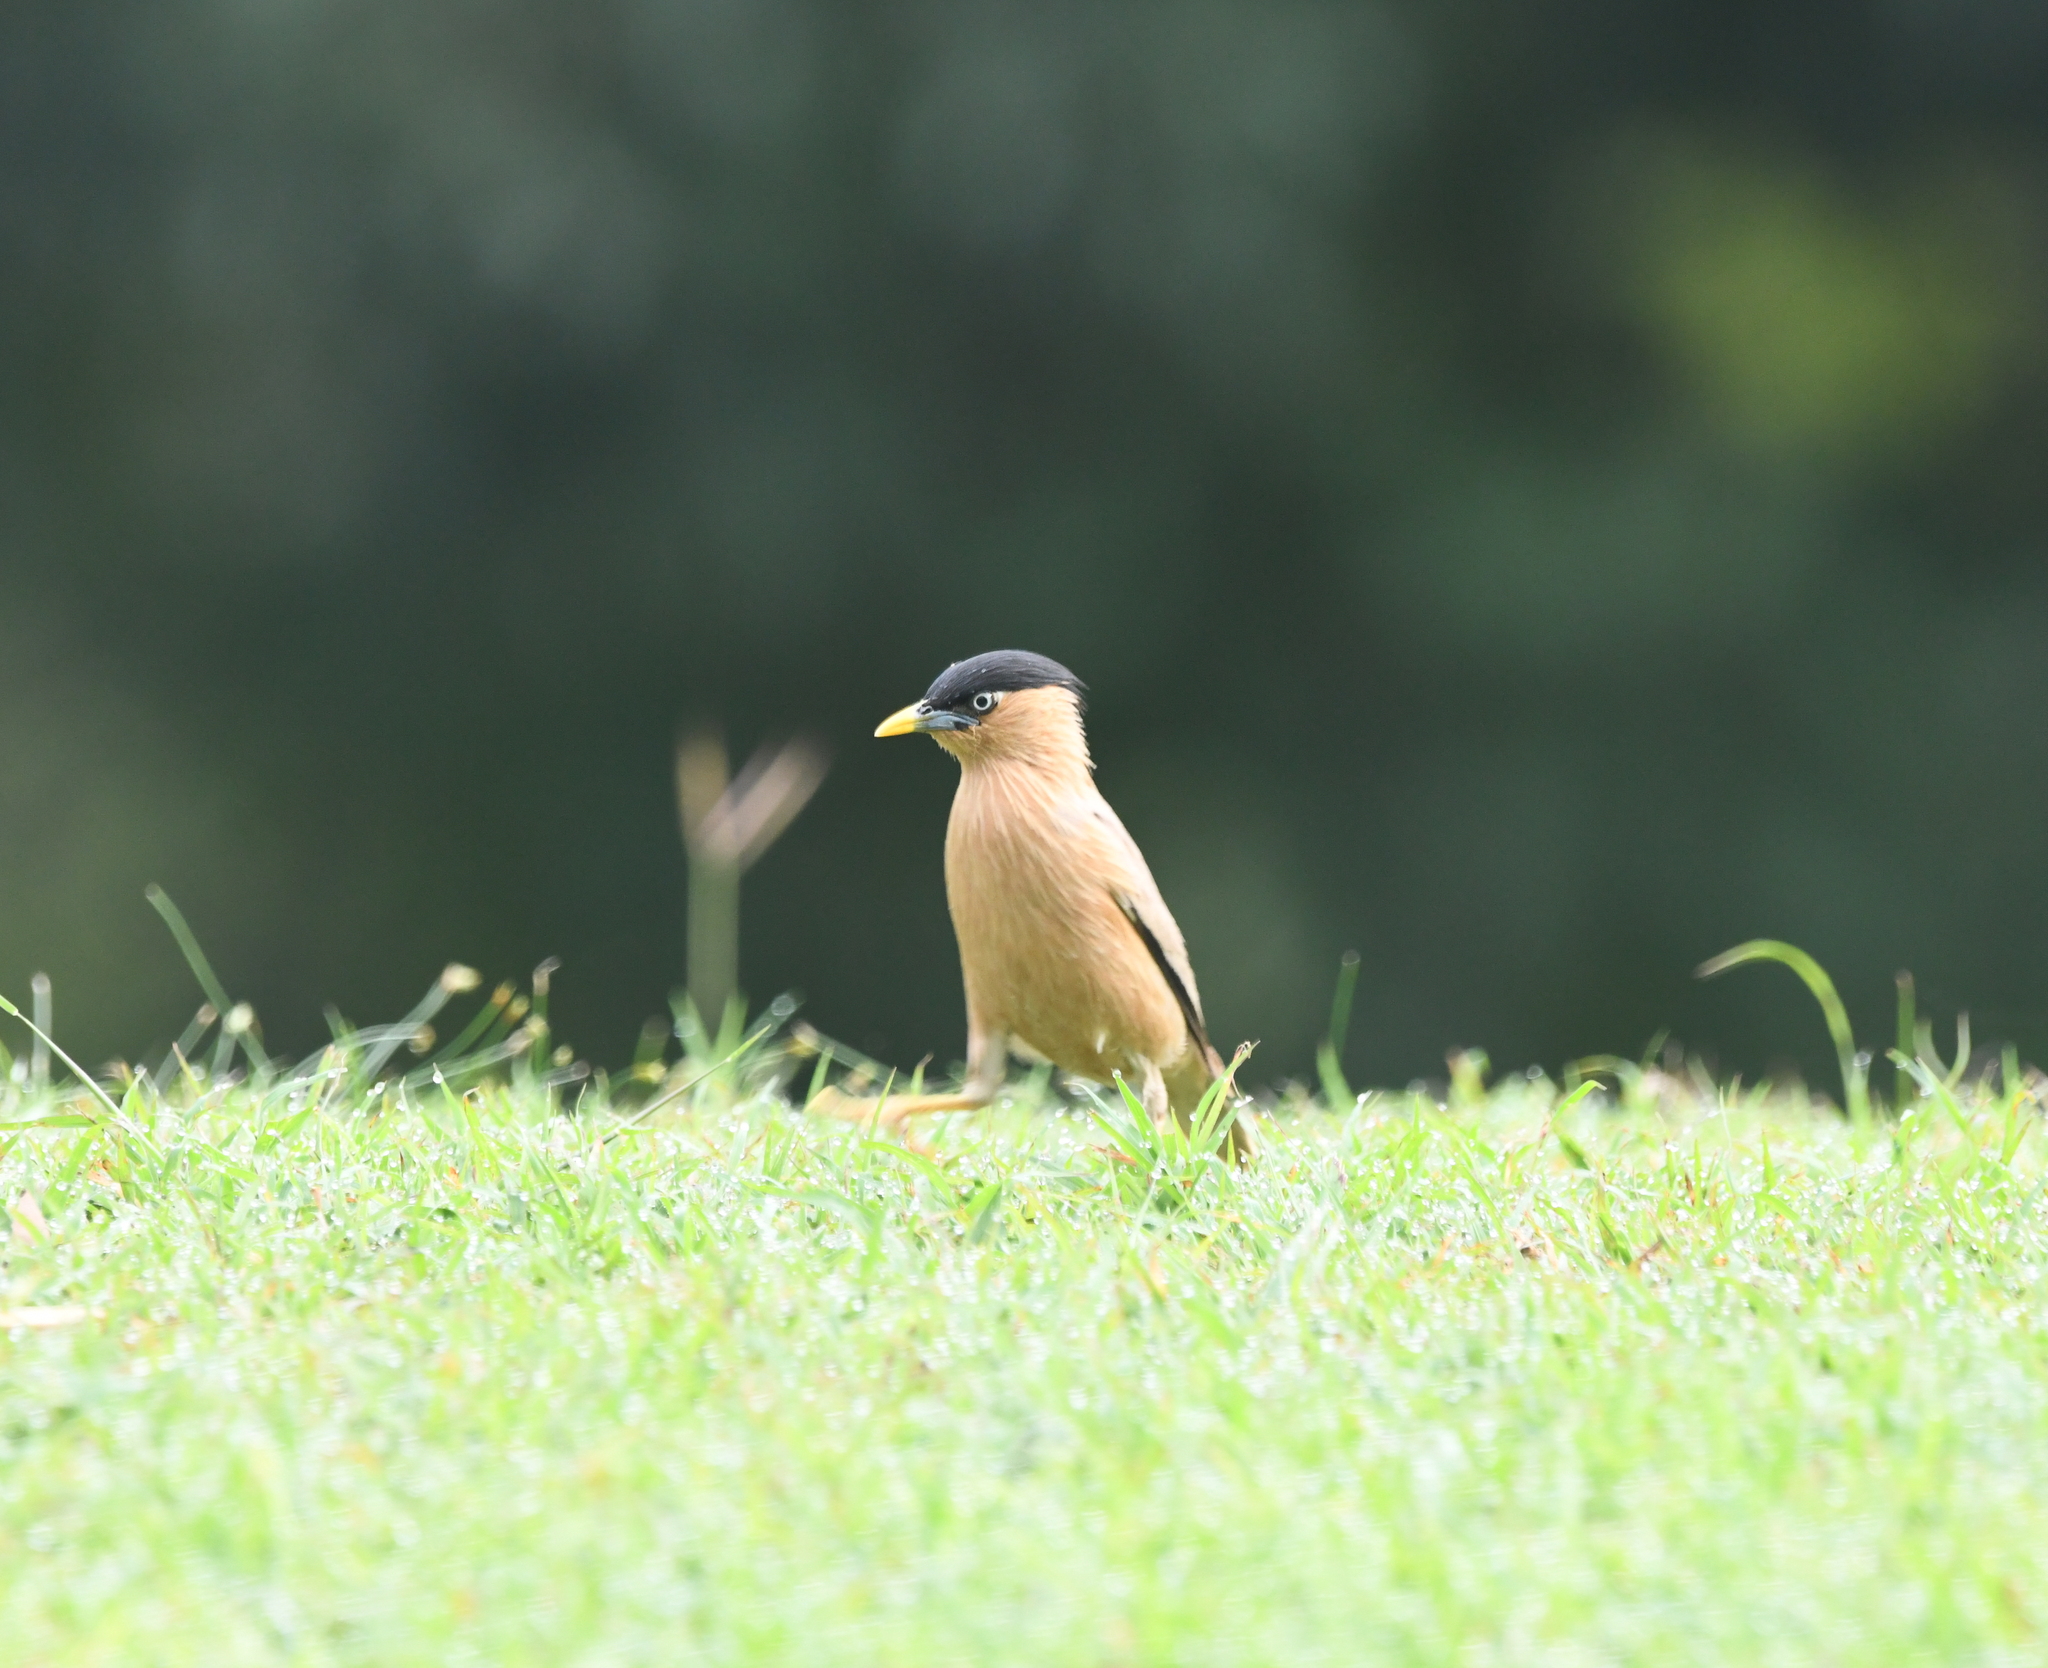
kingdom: Animalia
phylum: Chordata
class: Aves
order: Passeriformes
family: Sturnidae
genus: Sturnia
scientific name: Sturnia pagodarum
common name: Brahminy starling
